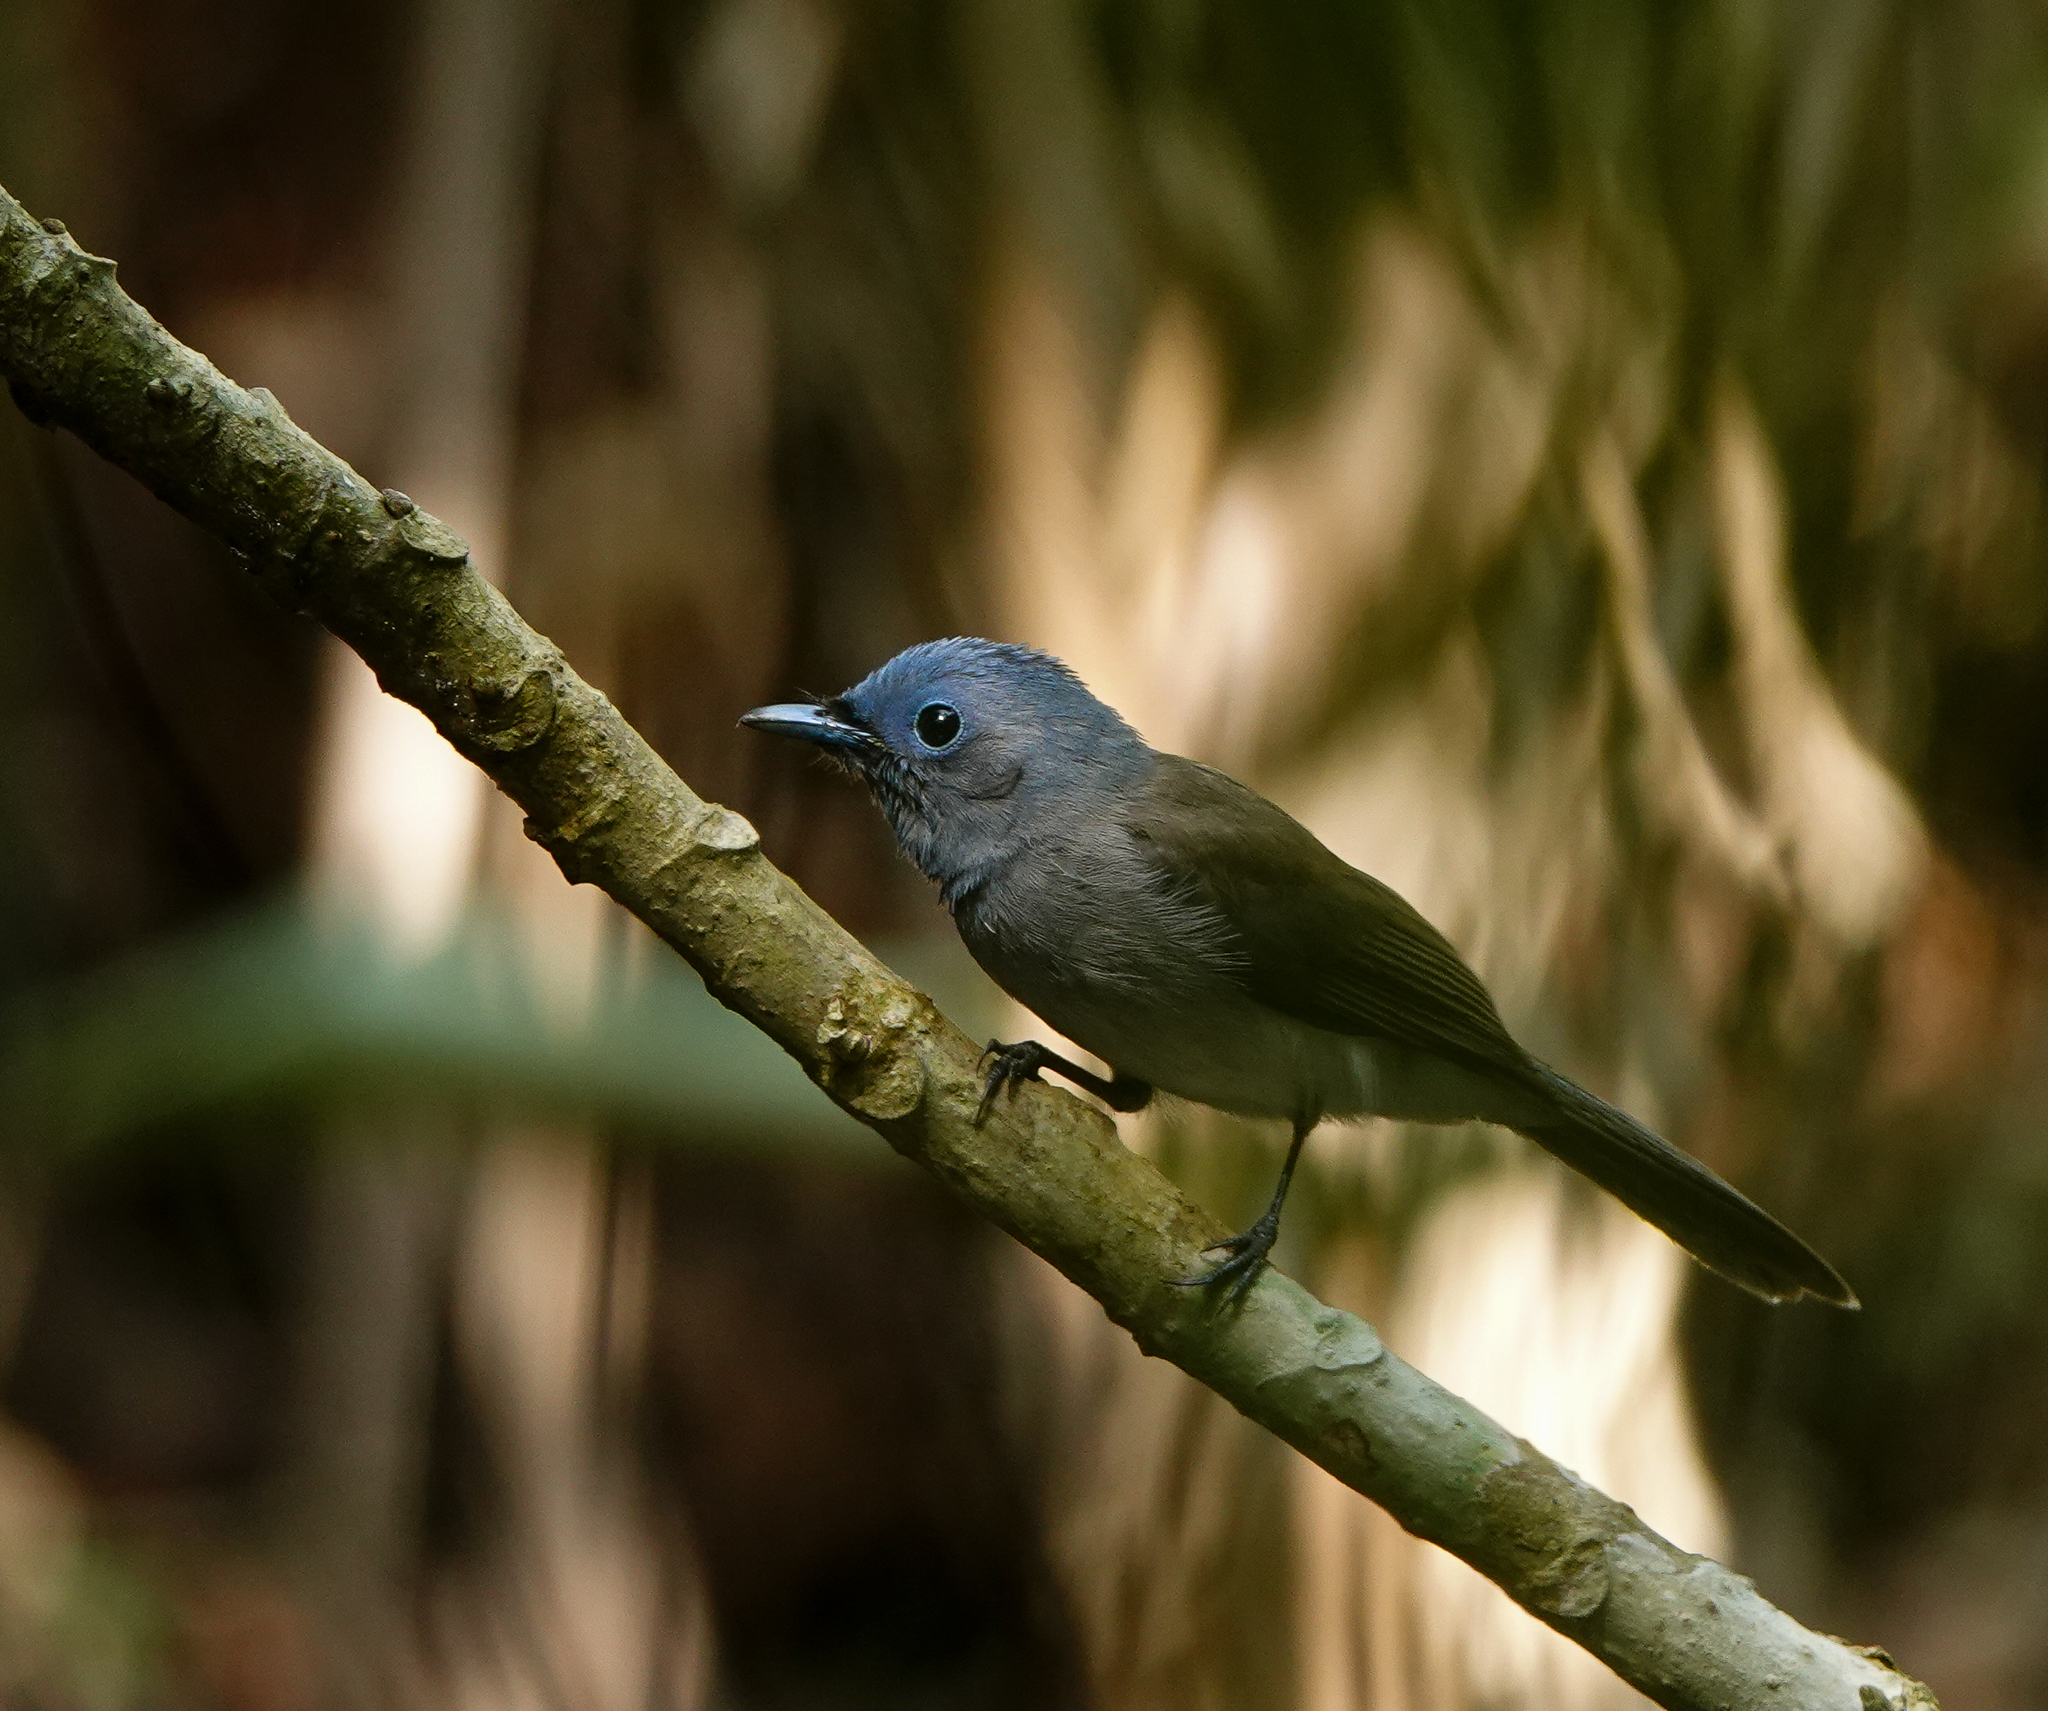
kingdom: Animalia
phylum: Chordata
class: Aves
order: Passeriformes
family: Monarchidae
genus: Hypothymis
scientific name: Hypothymis azurea
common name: Black-naped monarch
